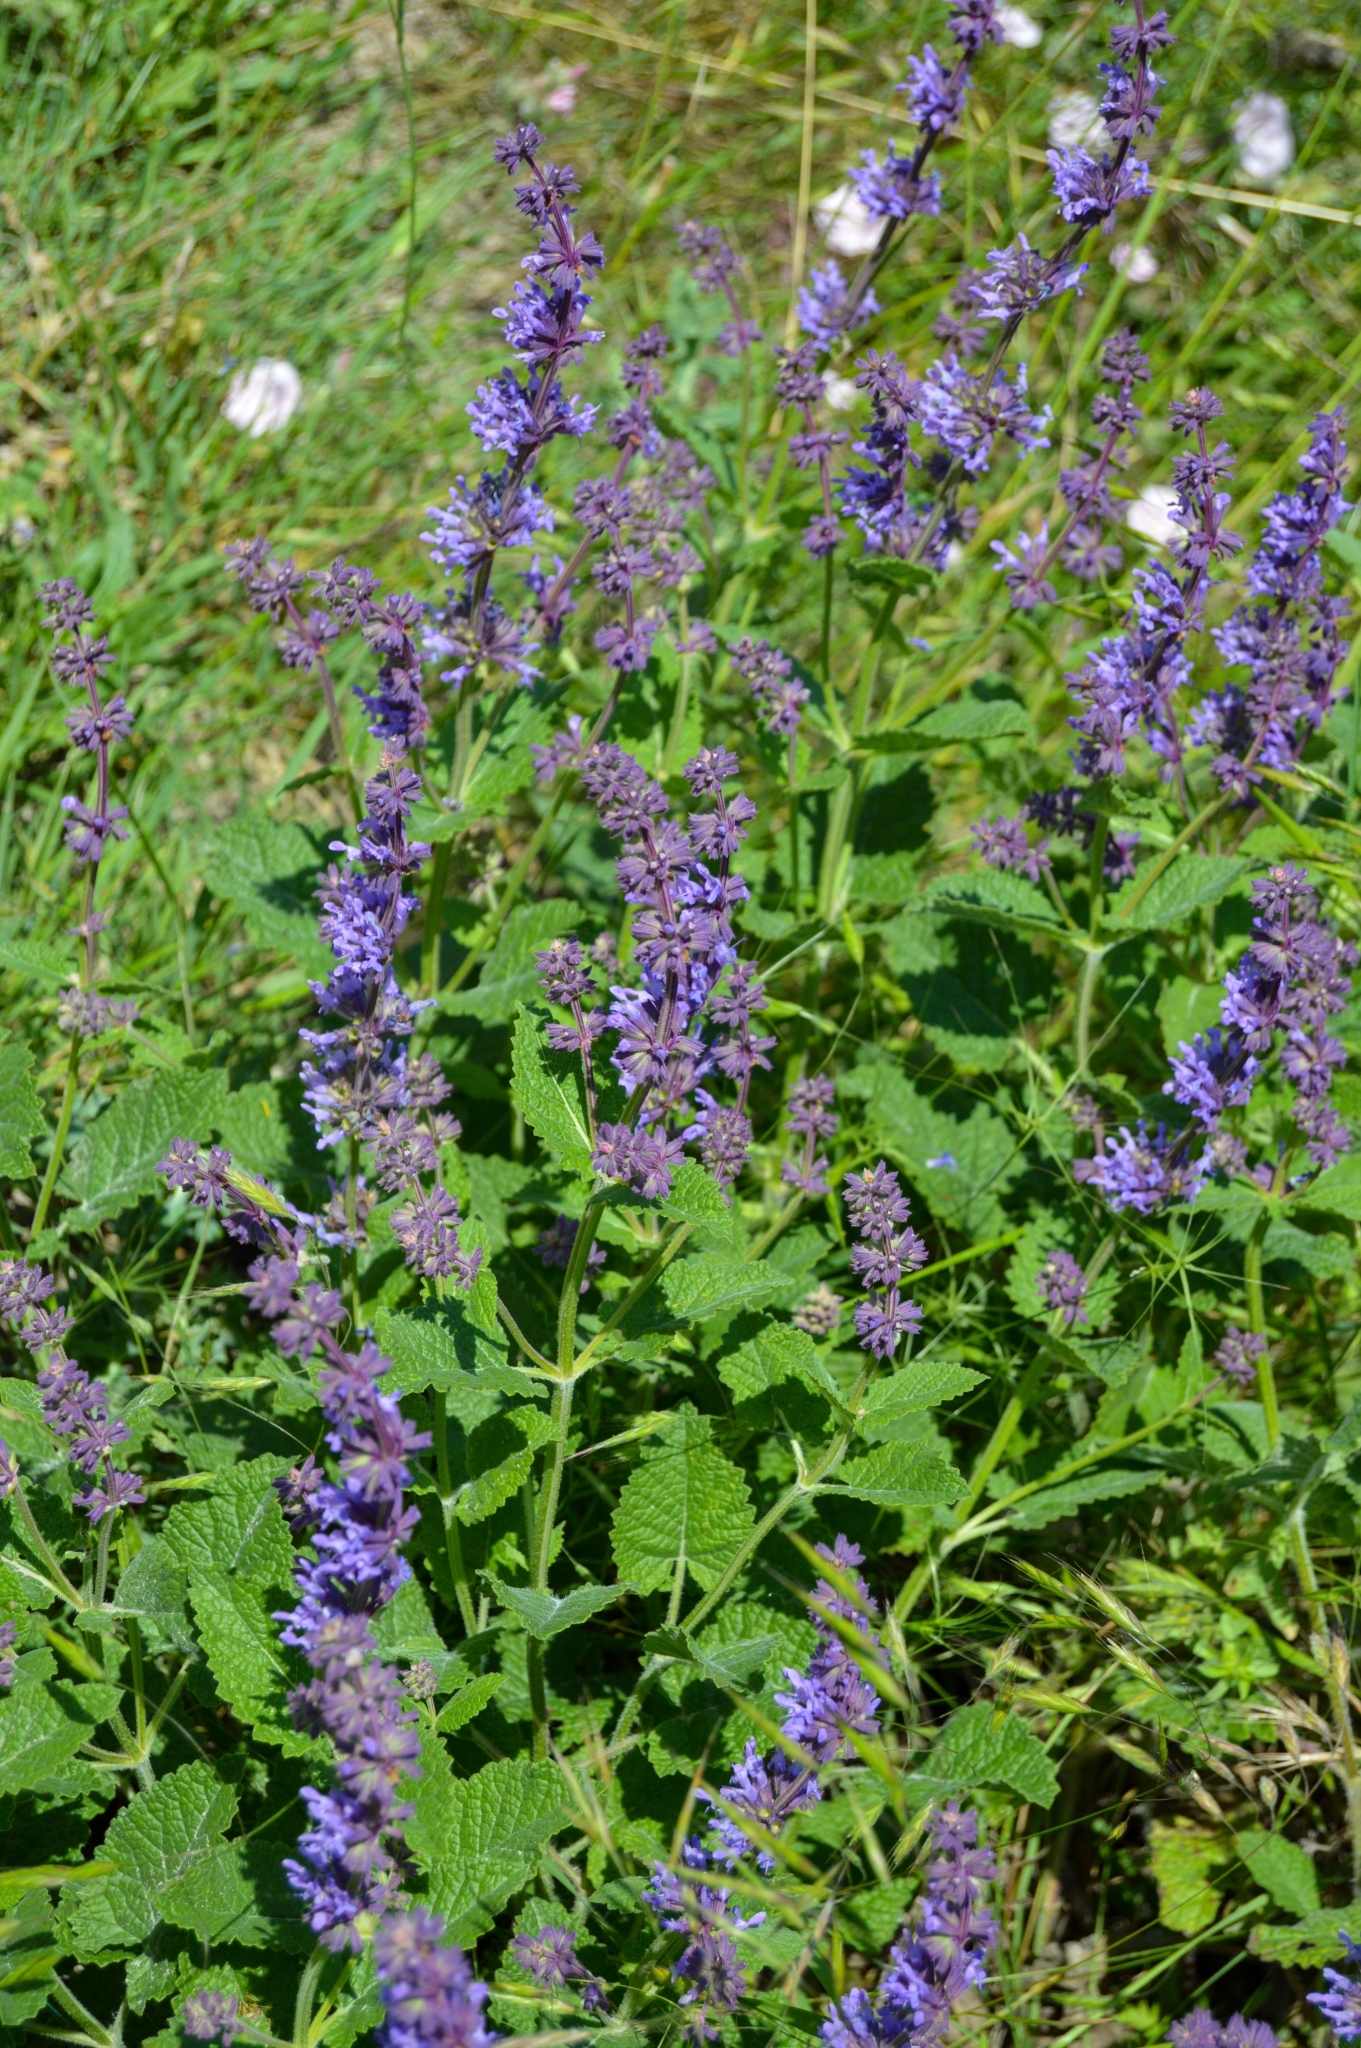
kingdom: Plantae
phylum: Tracheophyta
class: Magnoliopsida
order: Lamiales
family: Lamiaceae
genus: Salvia
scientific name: Salvia verticillata
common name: Whorled clary
